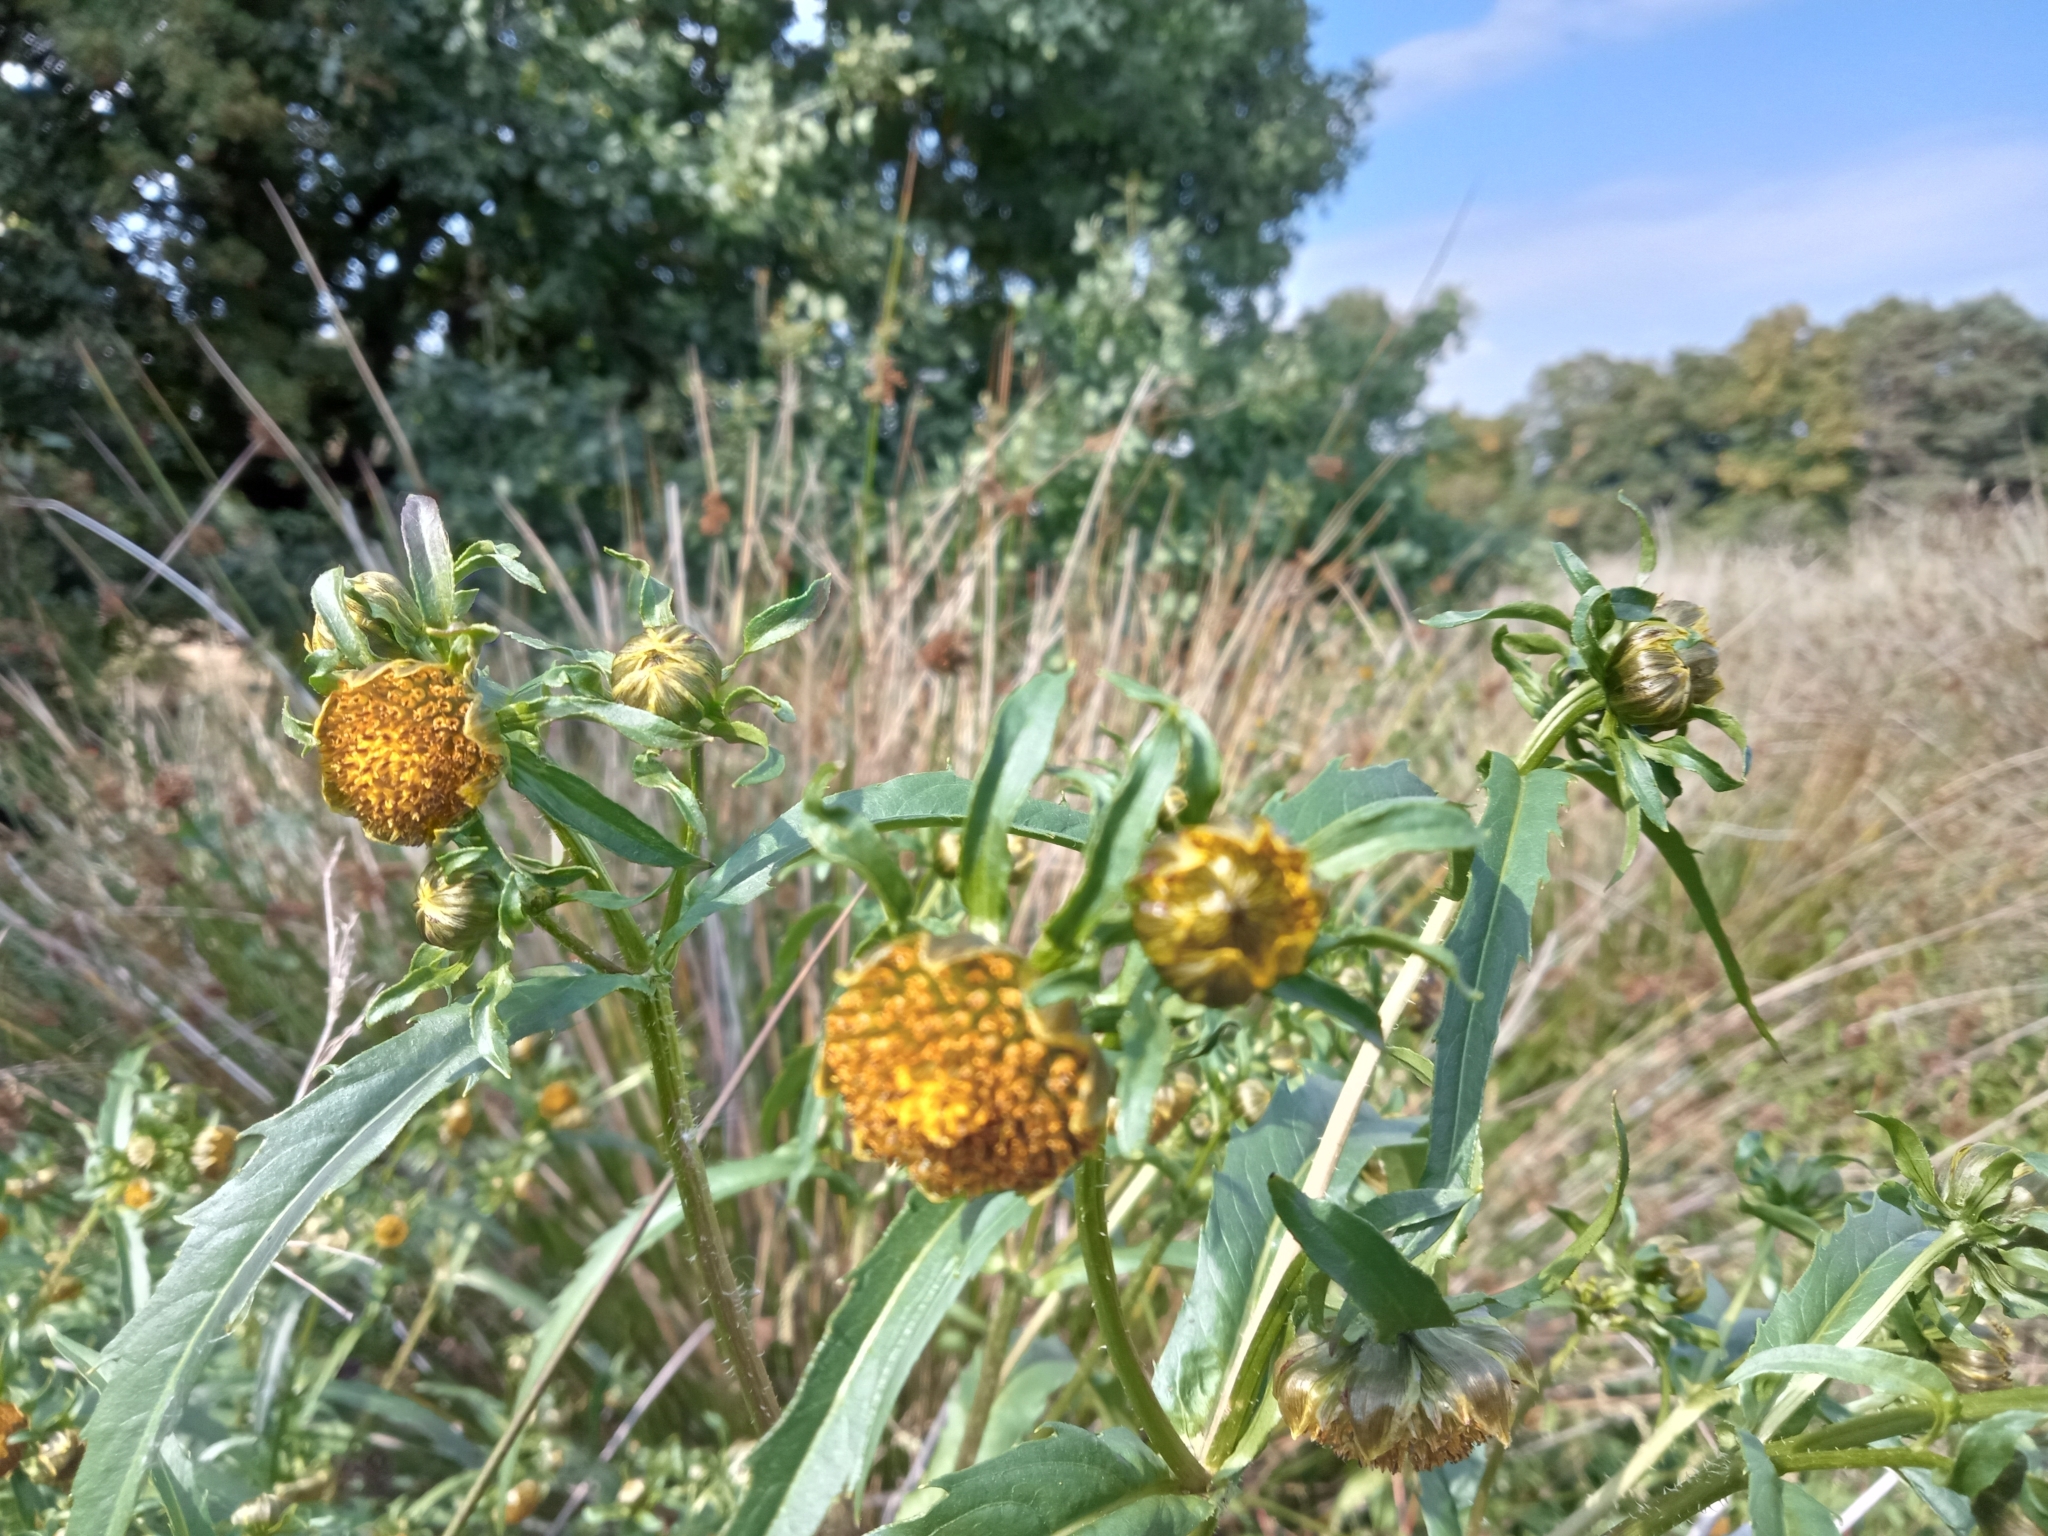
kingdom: Plantae
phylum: Tracheophyta
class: Magnoliopsida
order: Asterales
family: Asteraceae
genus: Bidens
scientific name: Bidens cernua
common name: Nodding bur-marigold
